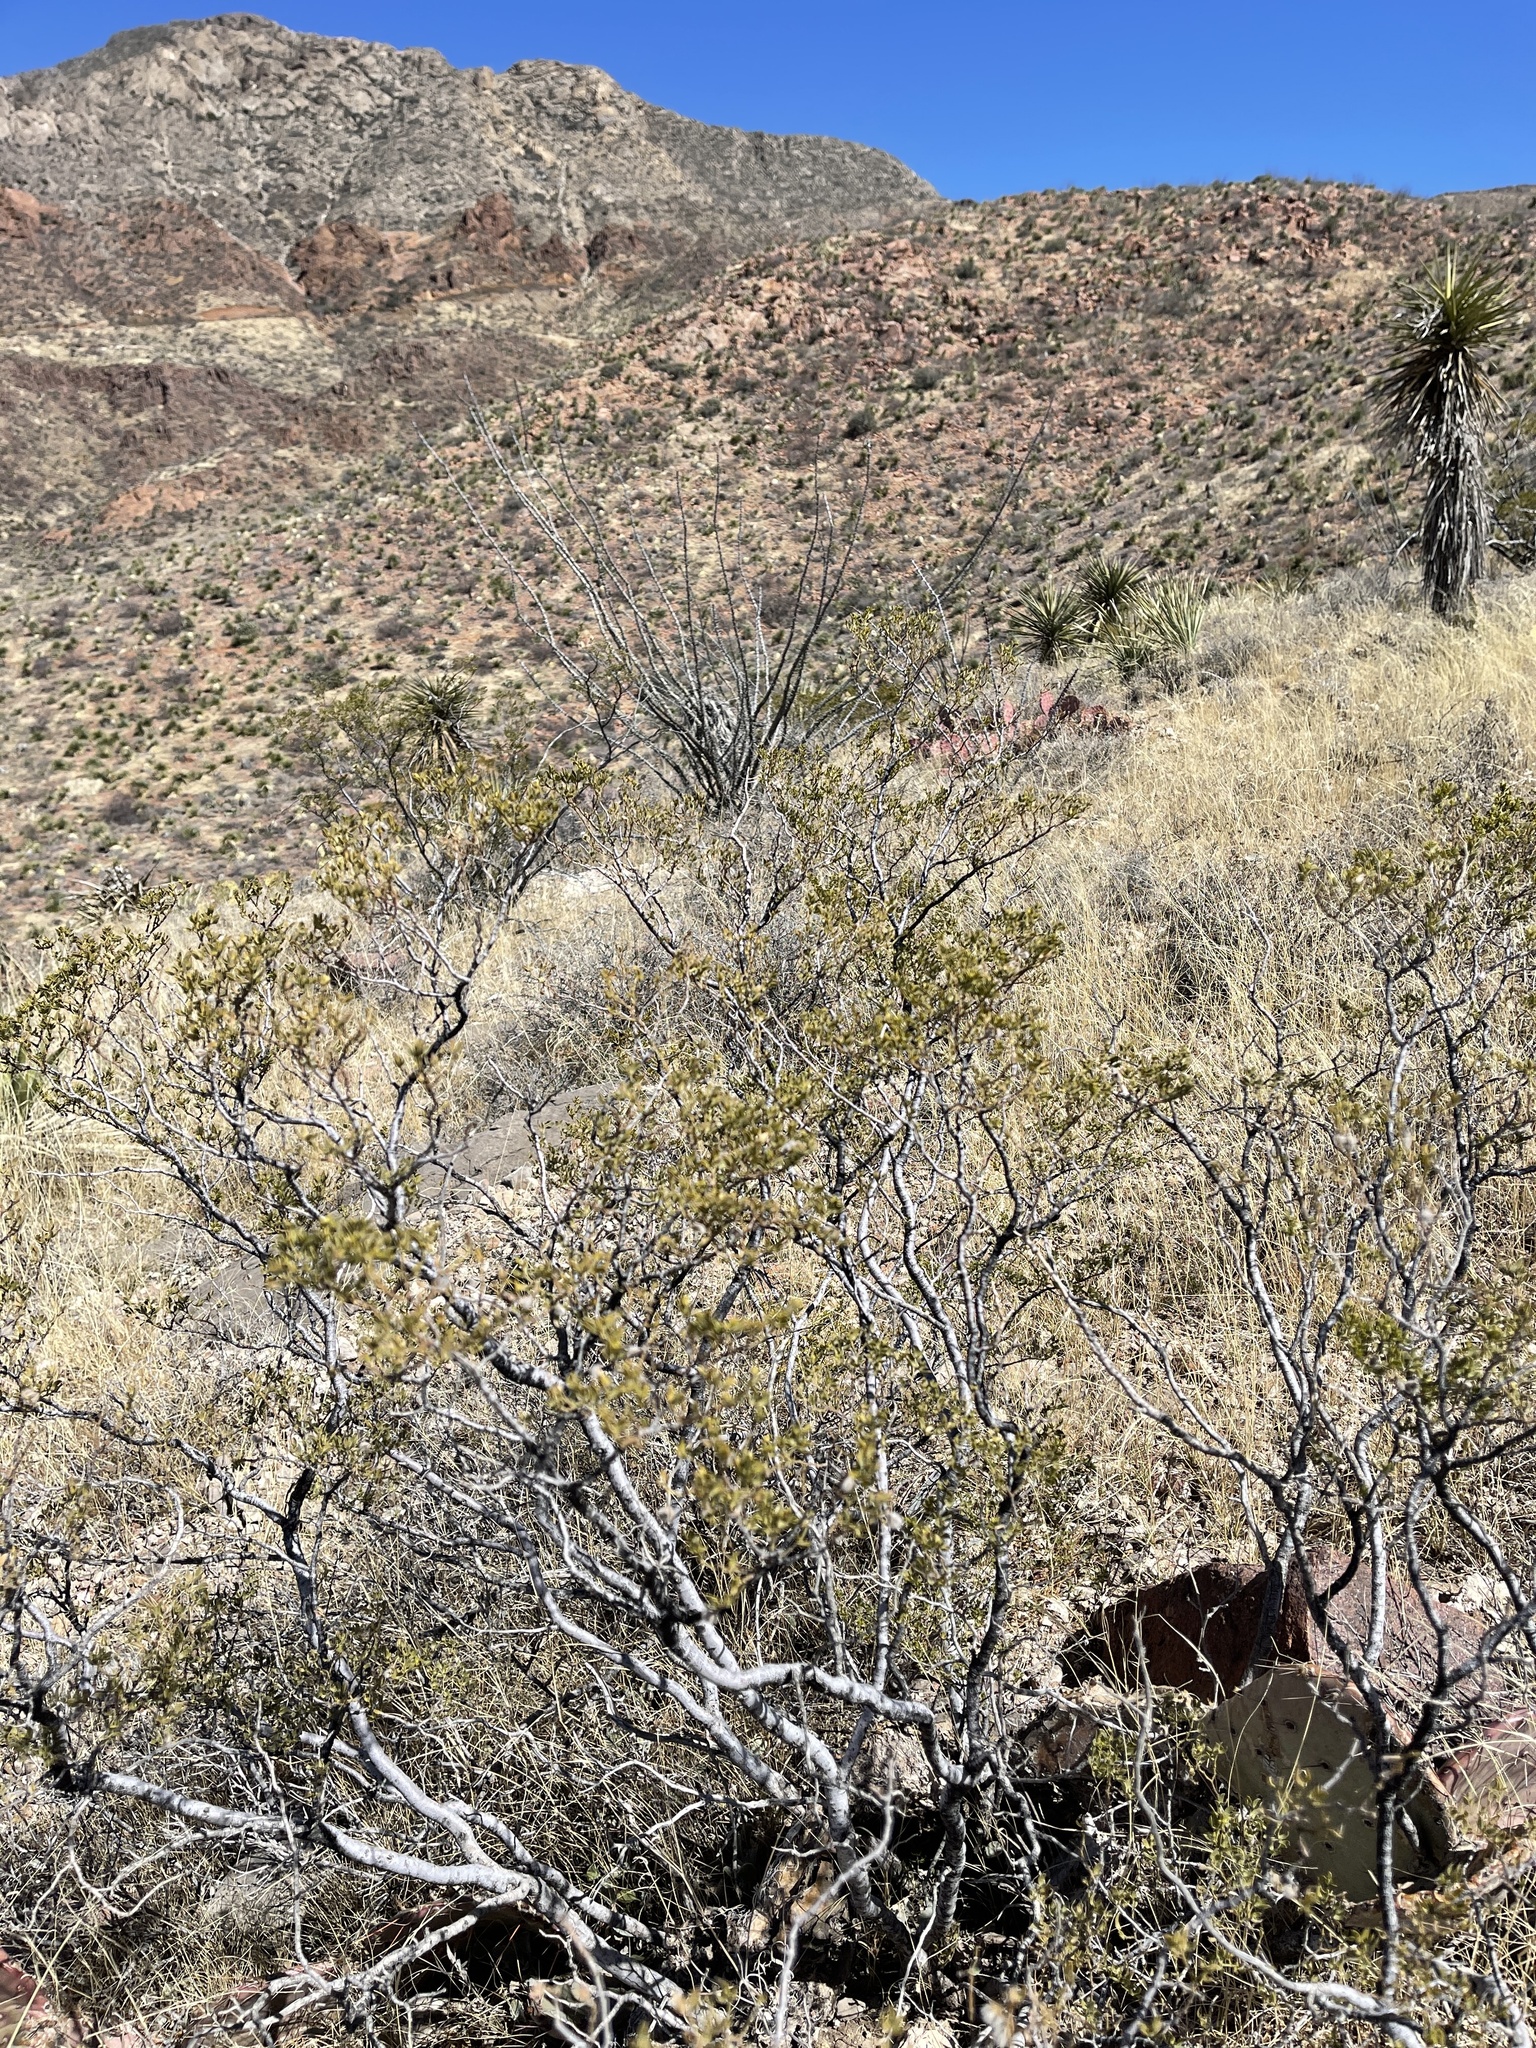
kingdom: Plantae
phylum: Tracheophyta
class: Magnoliopsida
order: Zygophyllales
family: Zygophyllaceae
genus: Larrea
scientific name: Larrea tridentata
